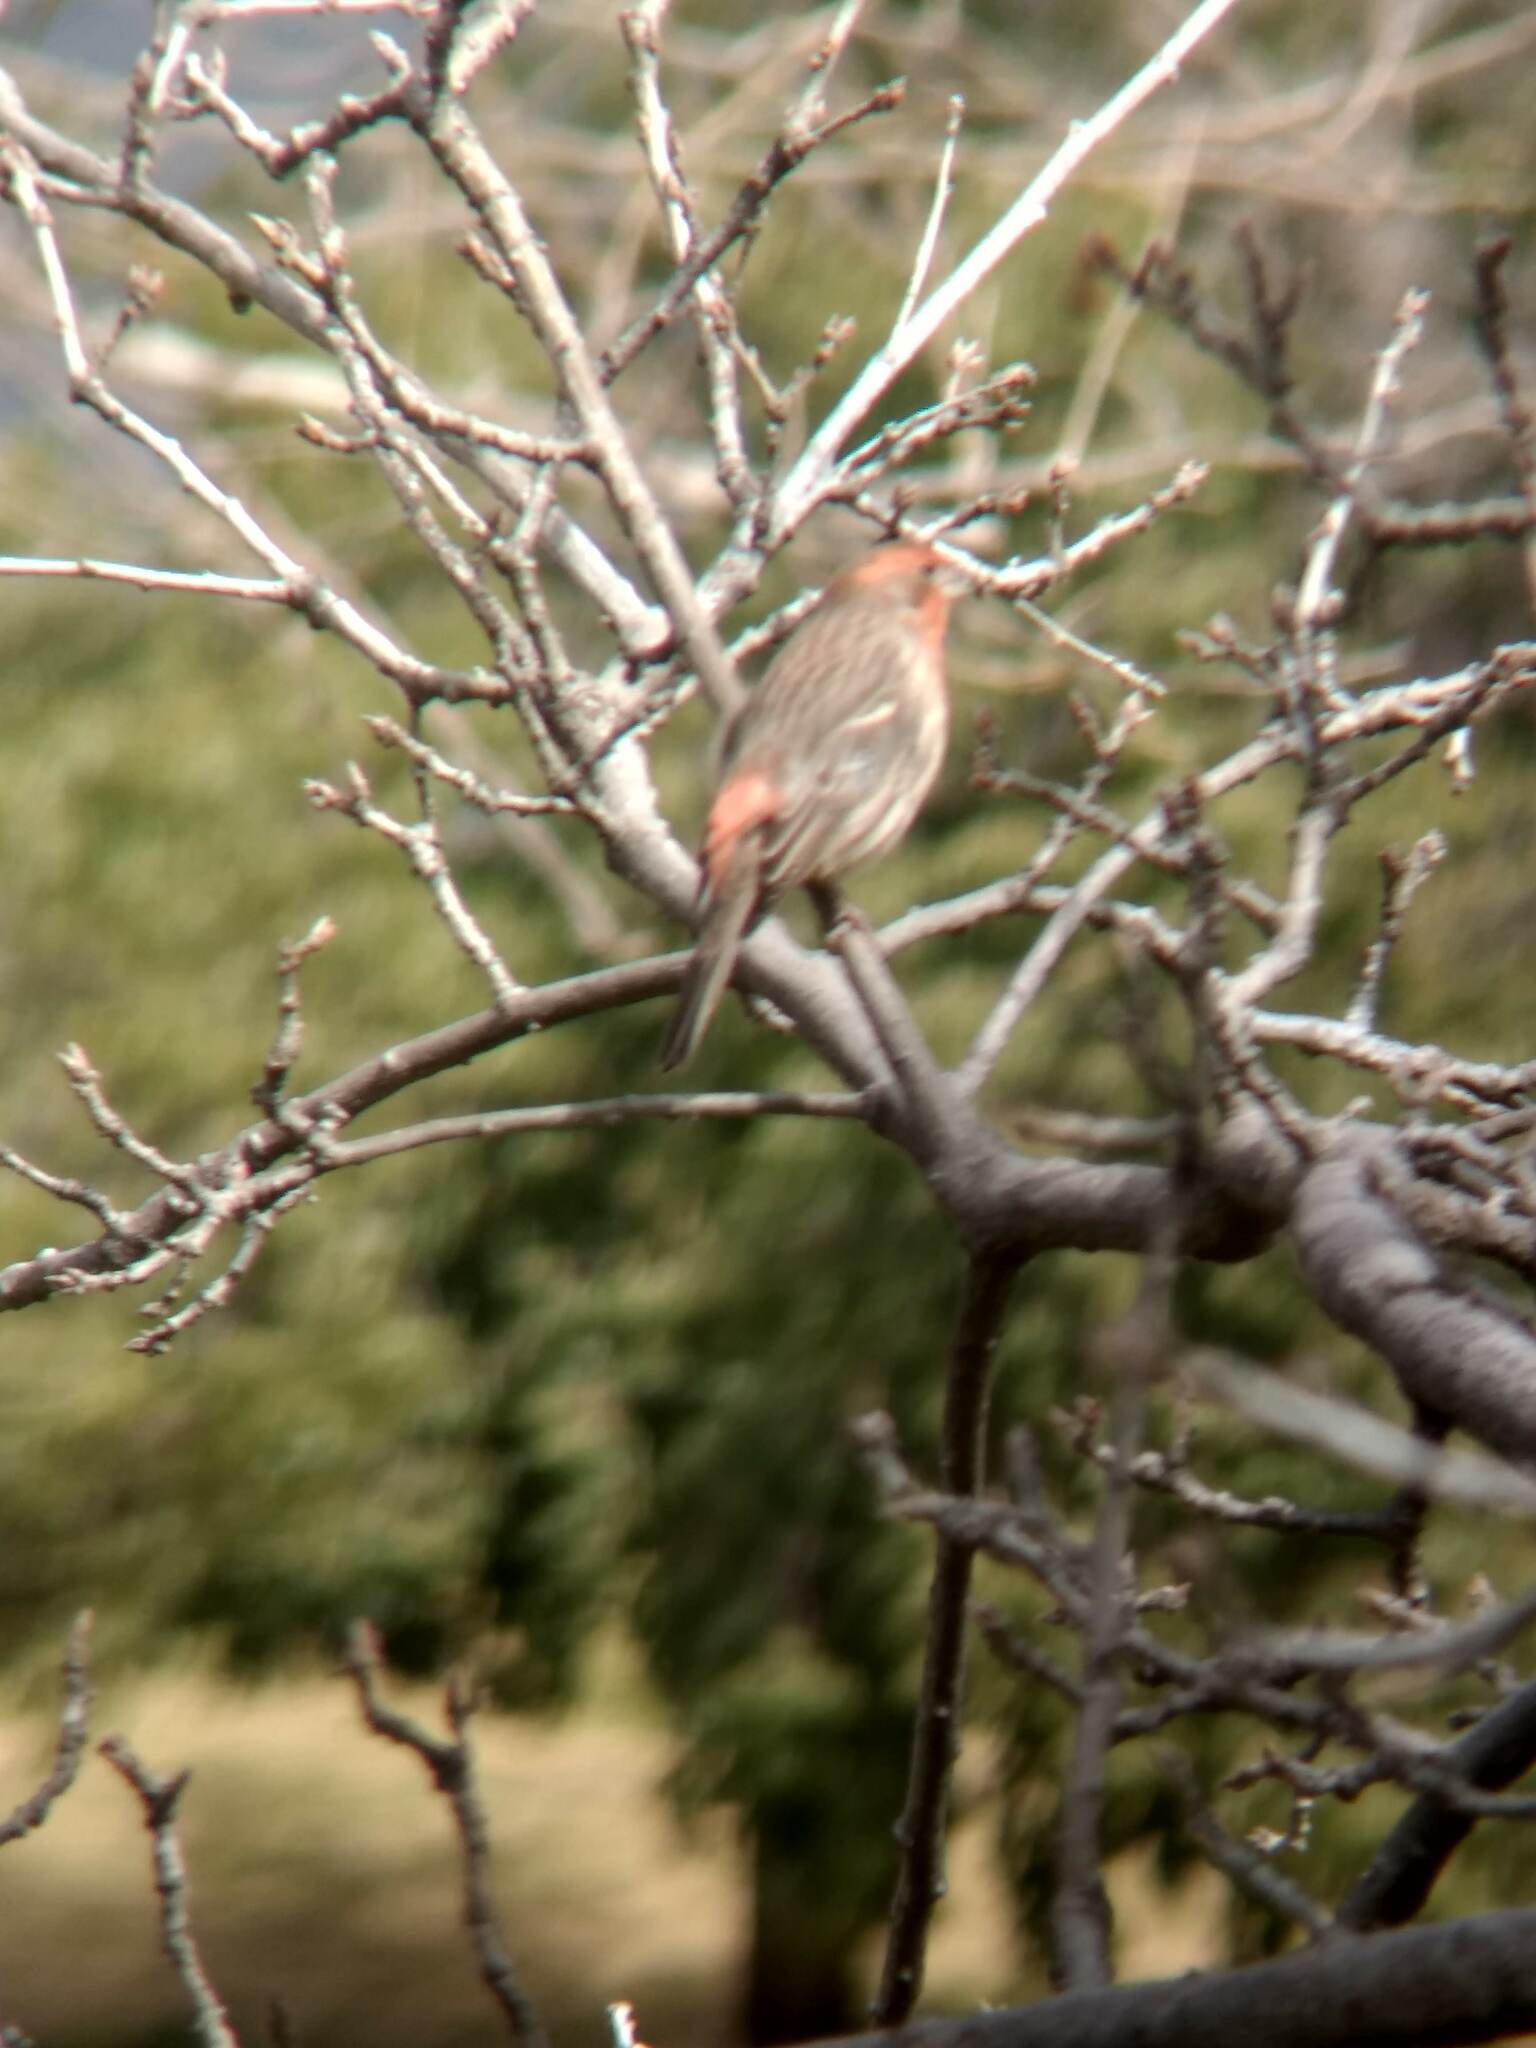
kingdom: Animalia
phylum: Chordata
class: Aves
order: Passeriformes
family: Fringillidae
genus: Haemorhous
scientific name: Haemorhous mexicanus
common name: House finch
